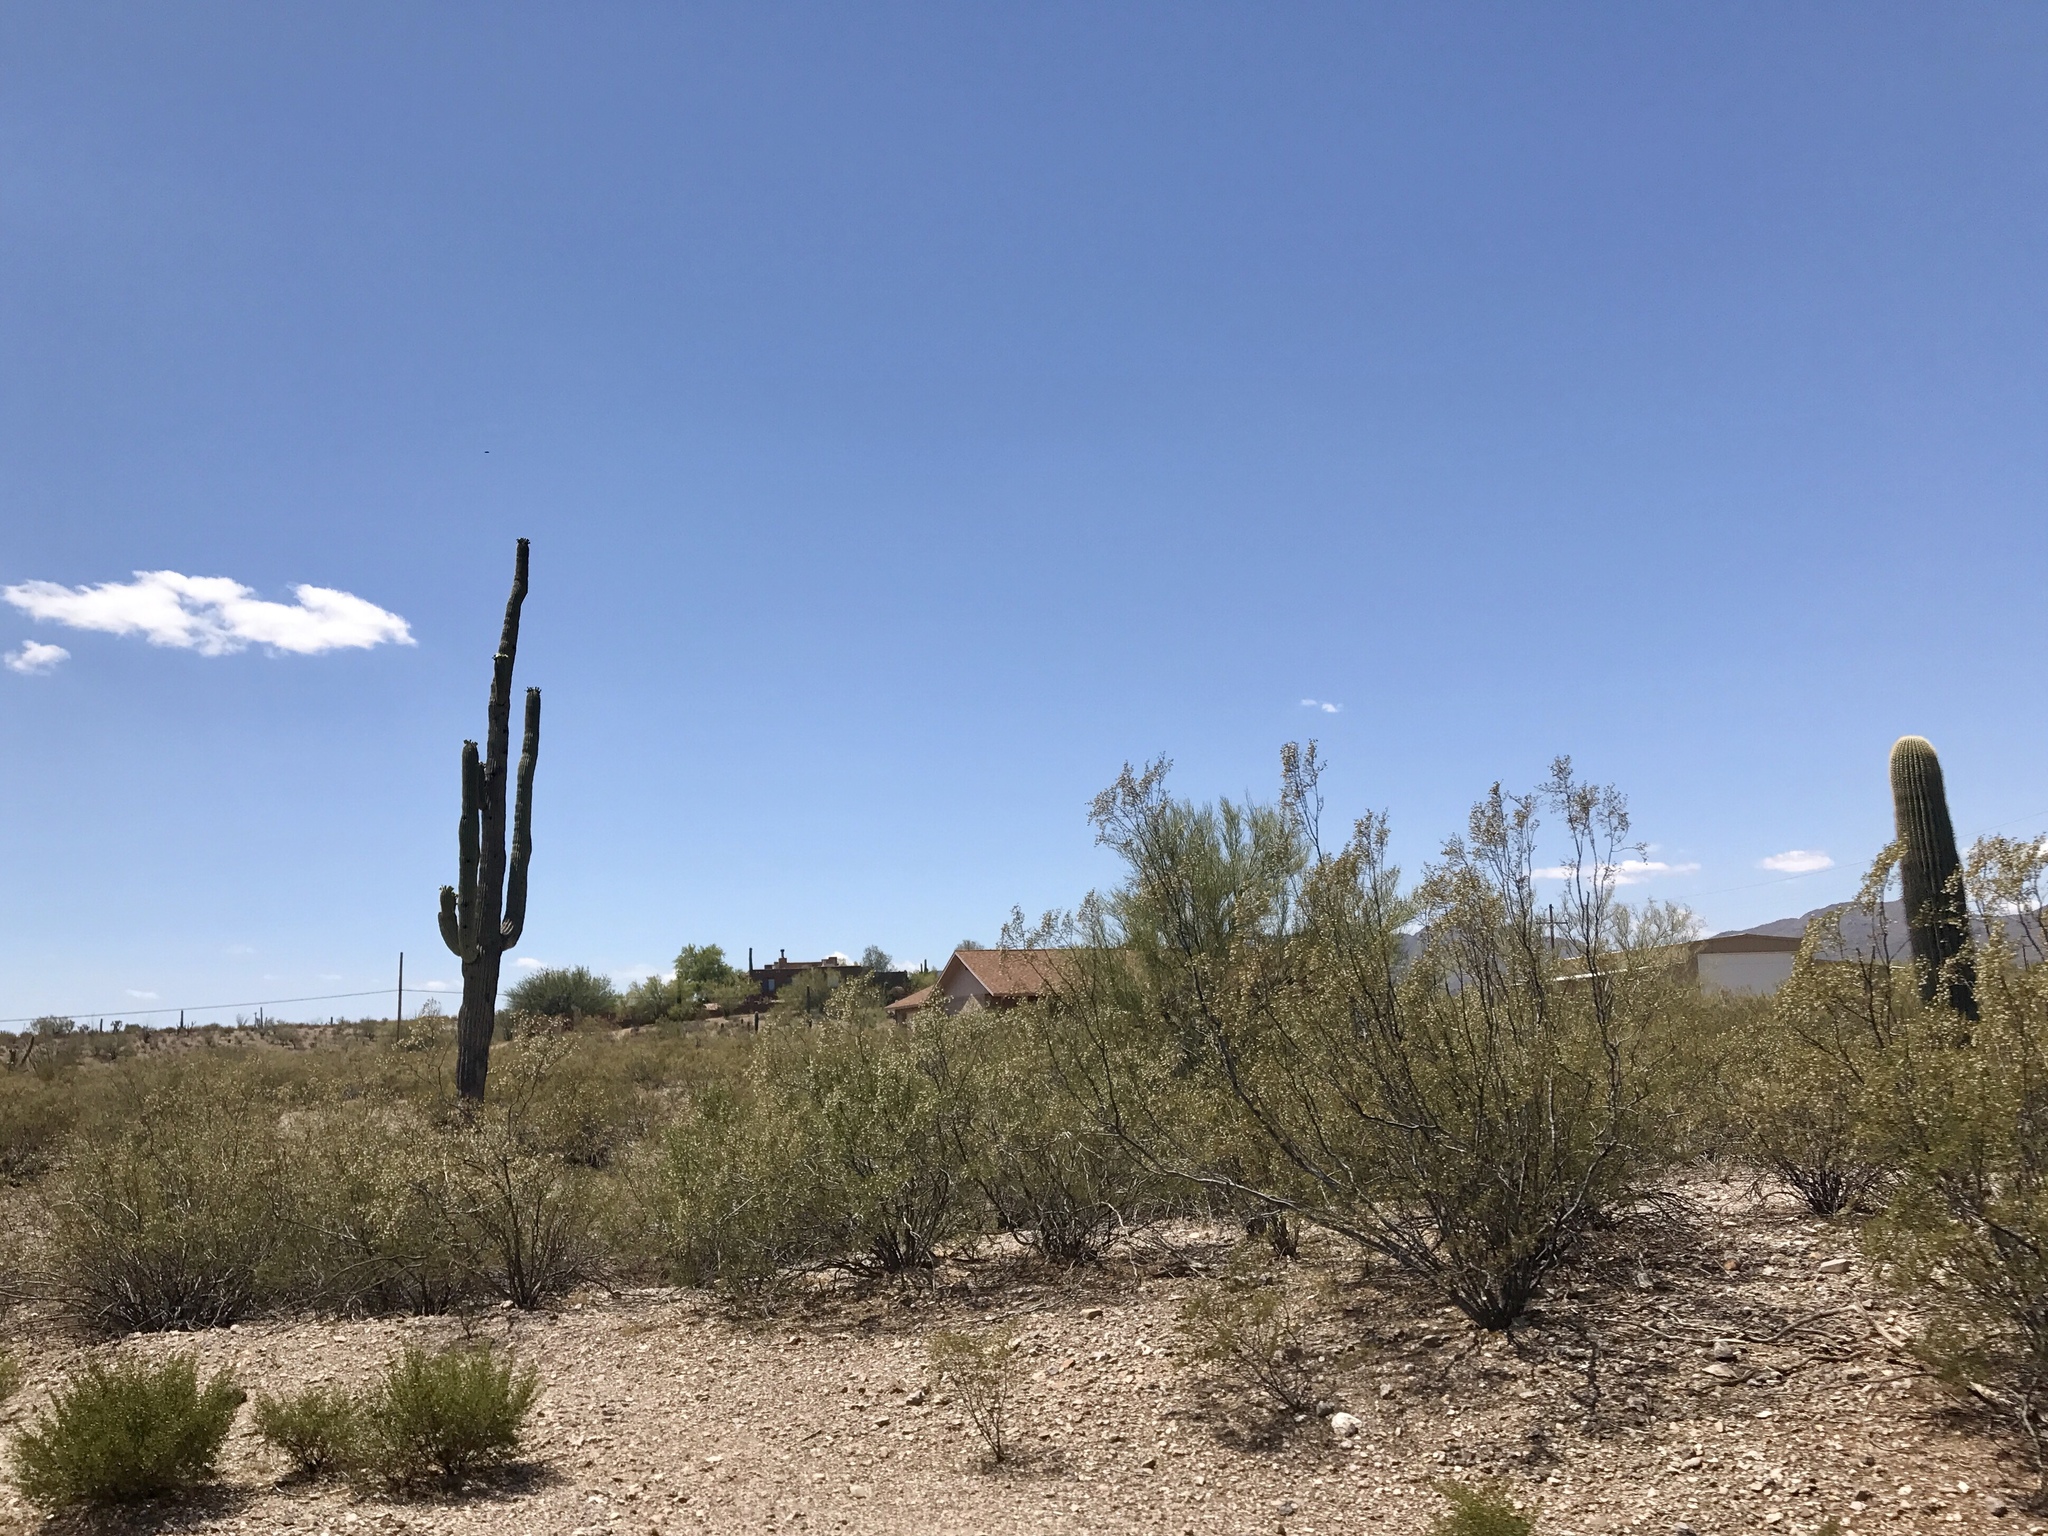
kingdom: Plantae
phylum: Tracheophyta
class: Magnoliopsida
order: Caryophyllales
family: Cactaceae
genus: Carnegiea
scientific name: Carnegiea gigantea
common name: Saguaro
